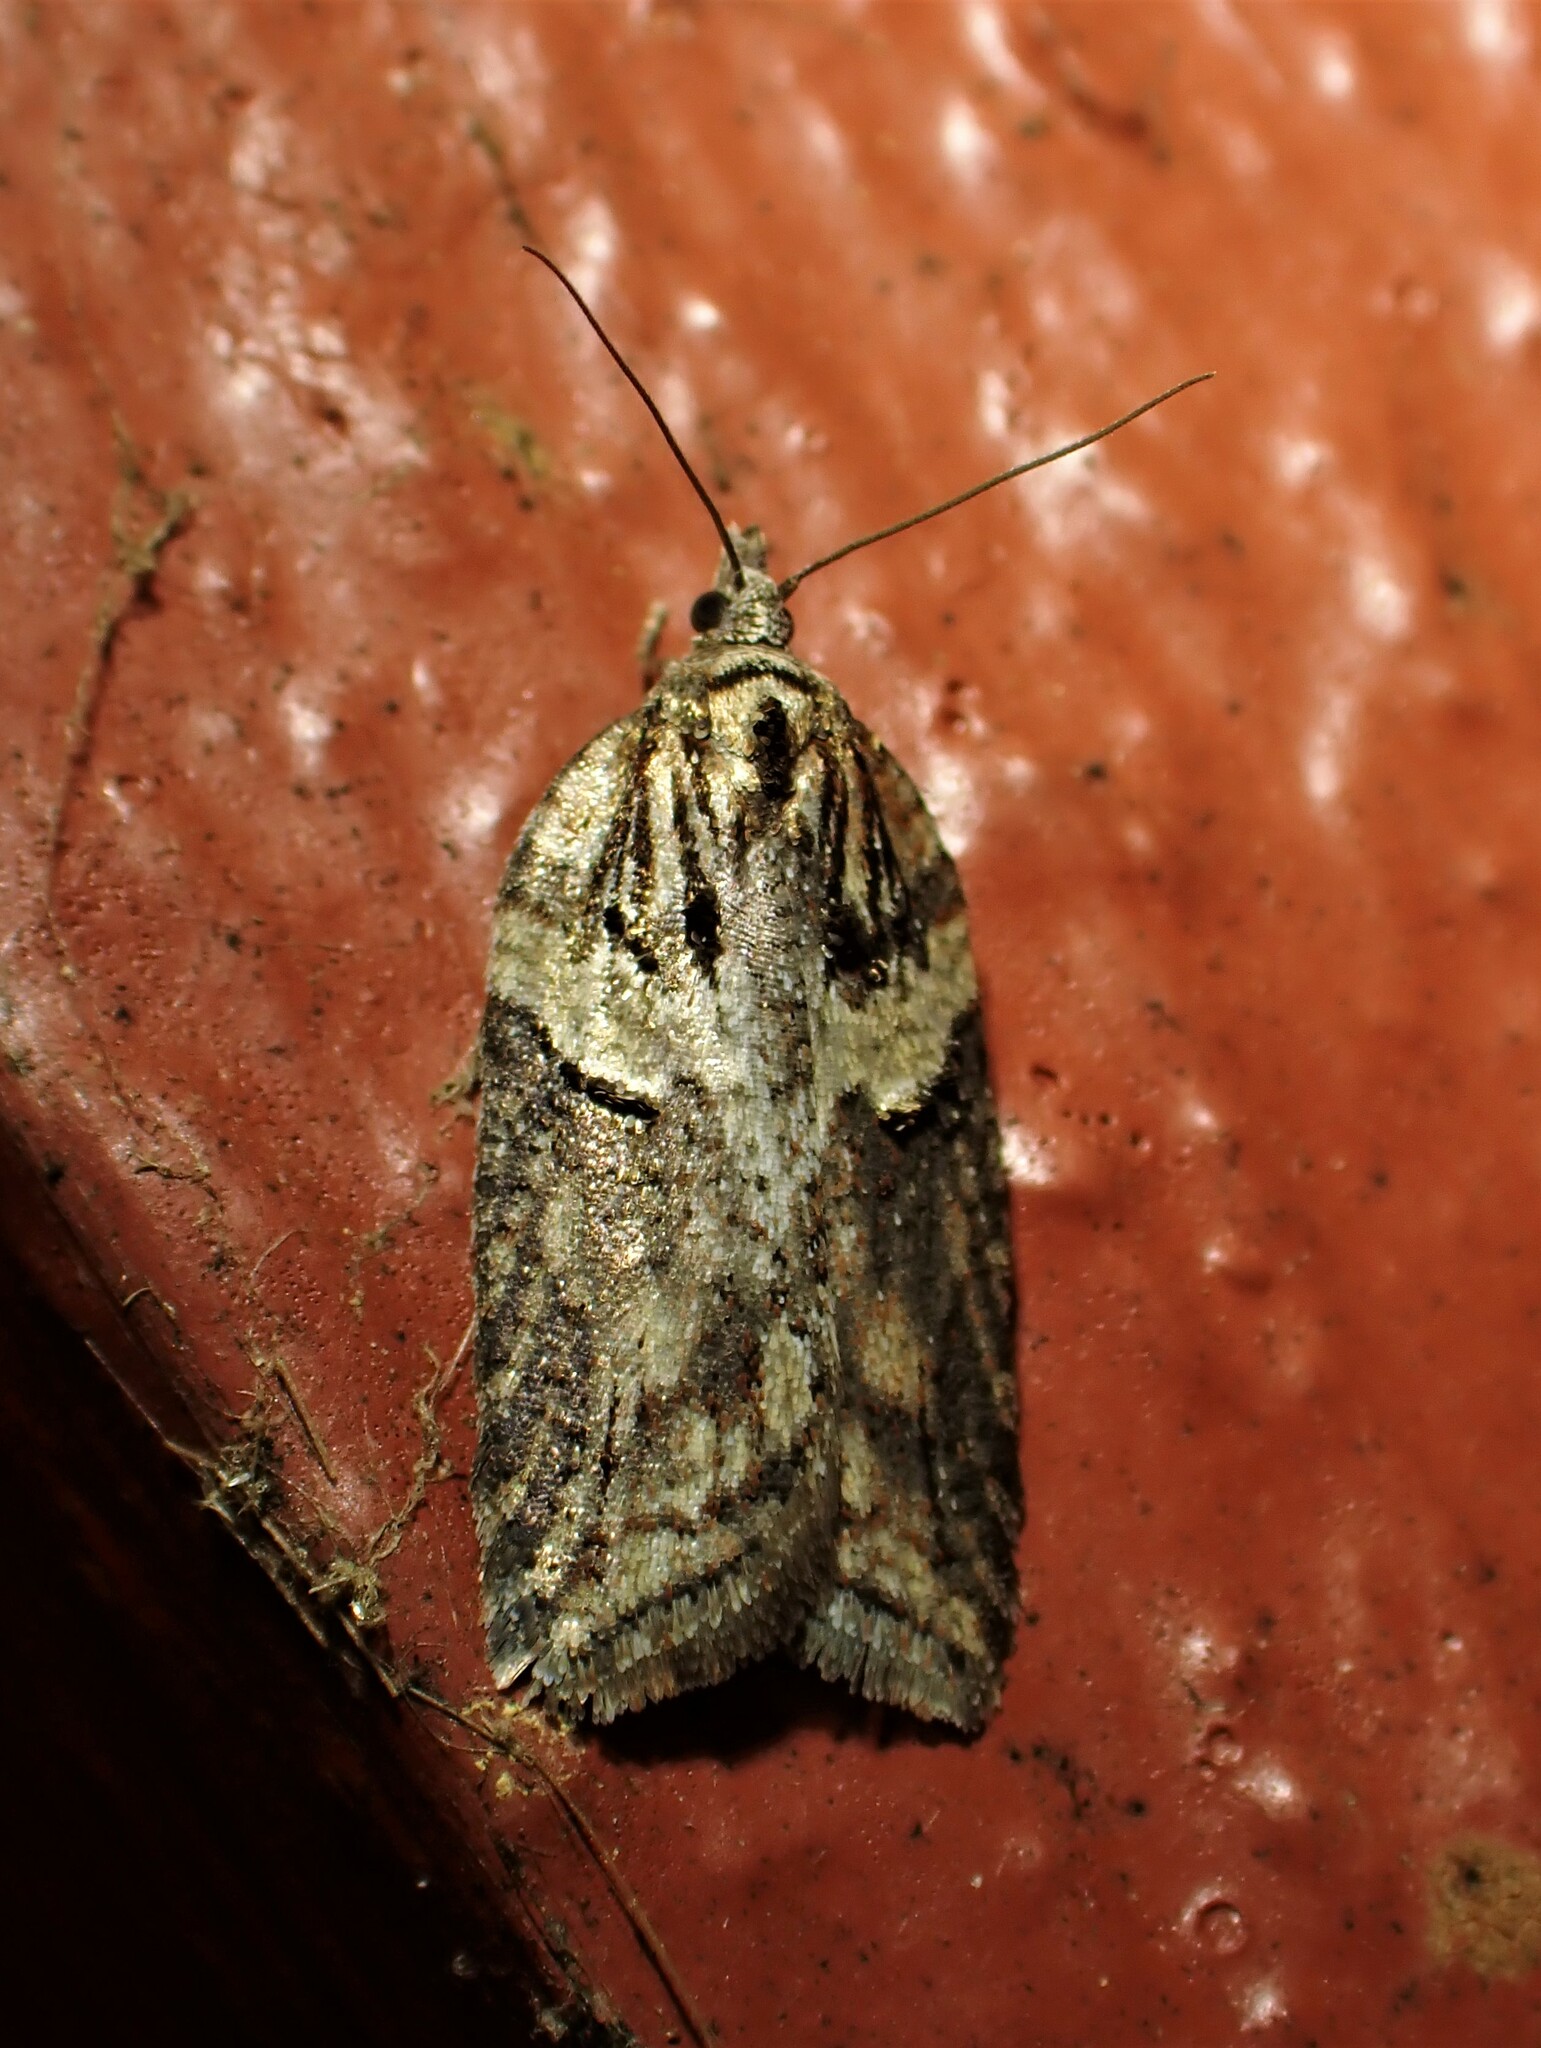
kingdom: Animalia
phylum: Arthropoda
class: Insecta
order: Lepidoptera
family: Tortricidae
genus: Acleris
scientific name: Acleris hastiana
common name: Sallow button
